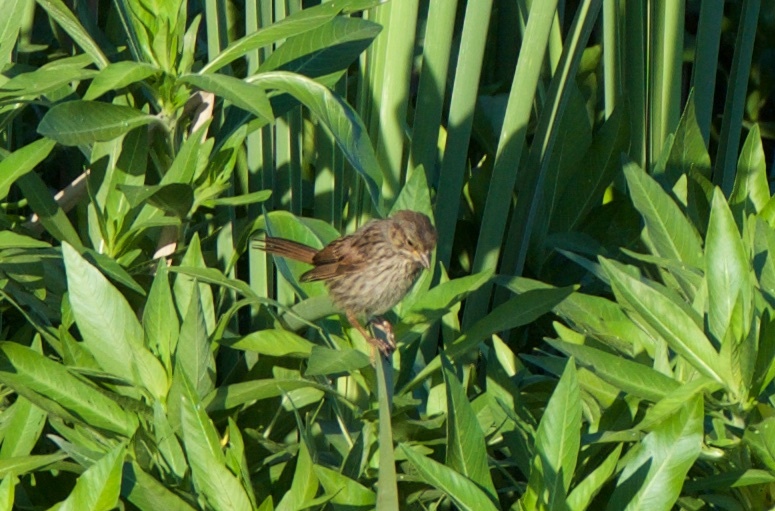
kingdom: Animalia
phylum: Chordata
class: Aves
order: Passeriformes
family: Passerellidae
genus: Melospiza
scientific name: Melospiza melodia
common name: Song sparrow
